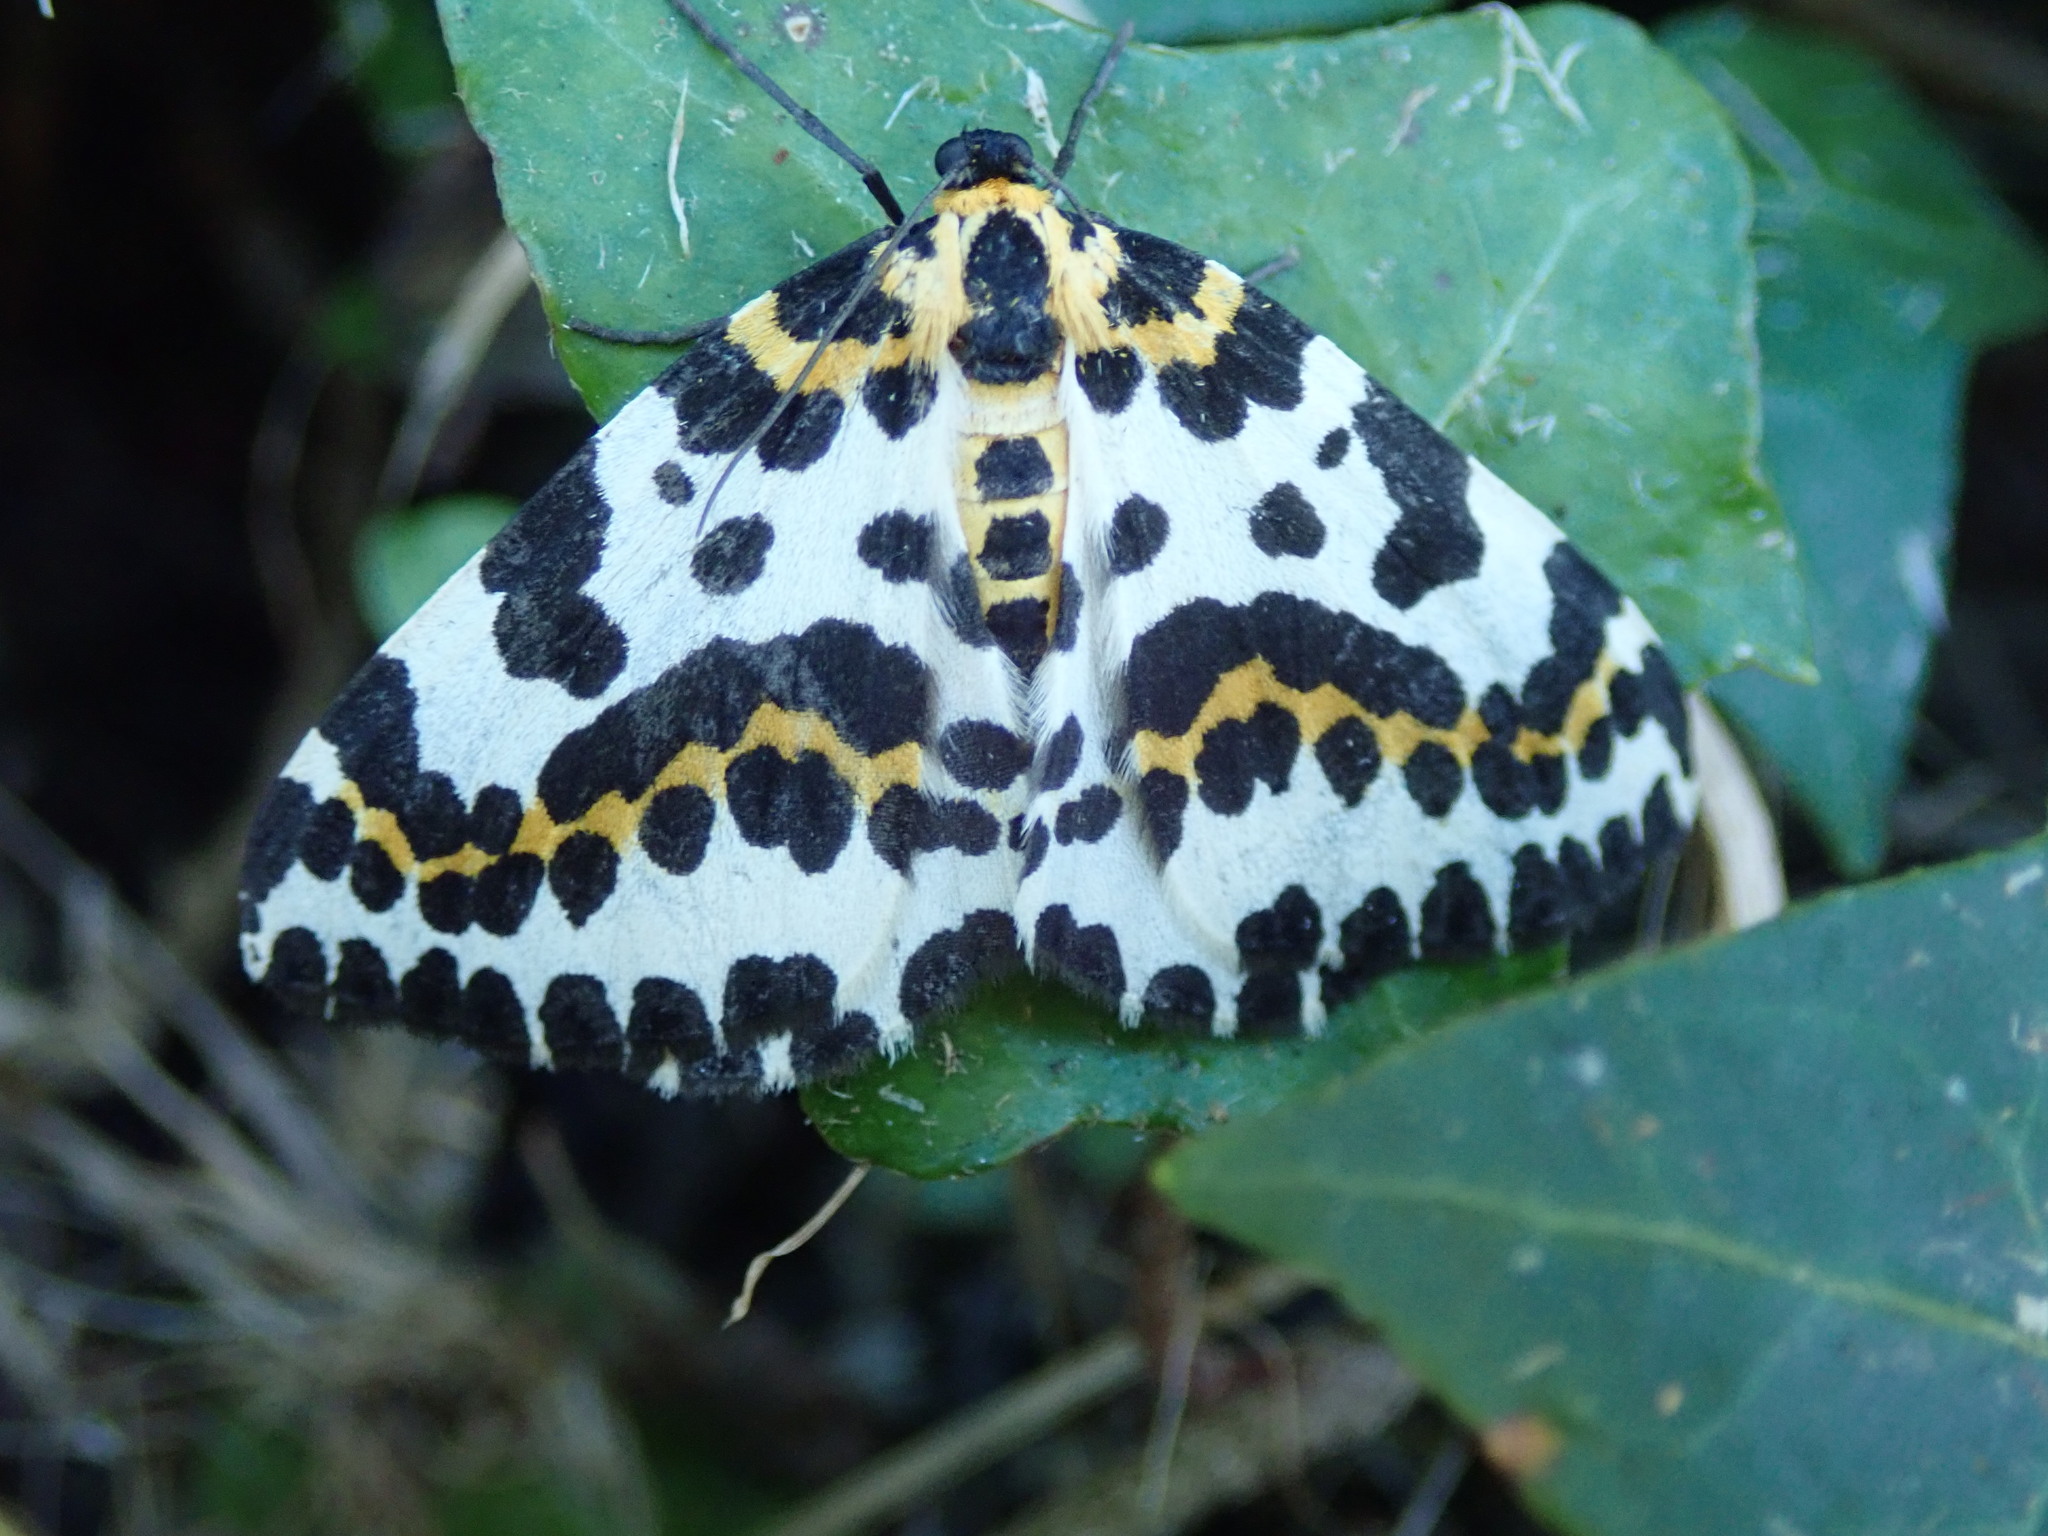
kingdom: Animalia
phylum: Arthropoda
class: Insecta
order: Lepidoptera
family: Geometridae
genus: Abraxas
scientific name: Abraxas grossulariata
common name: Magpie
